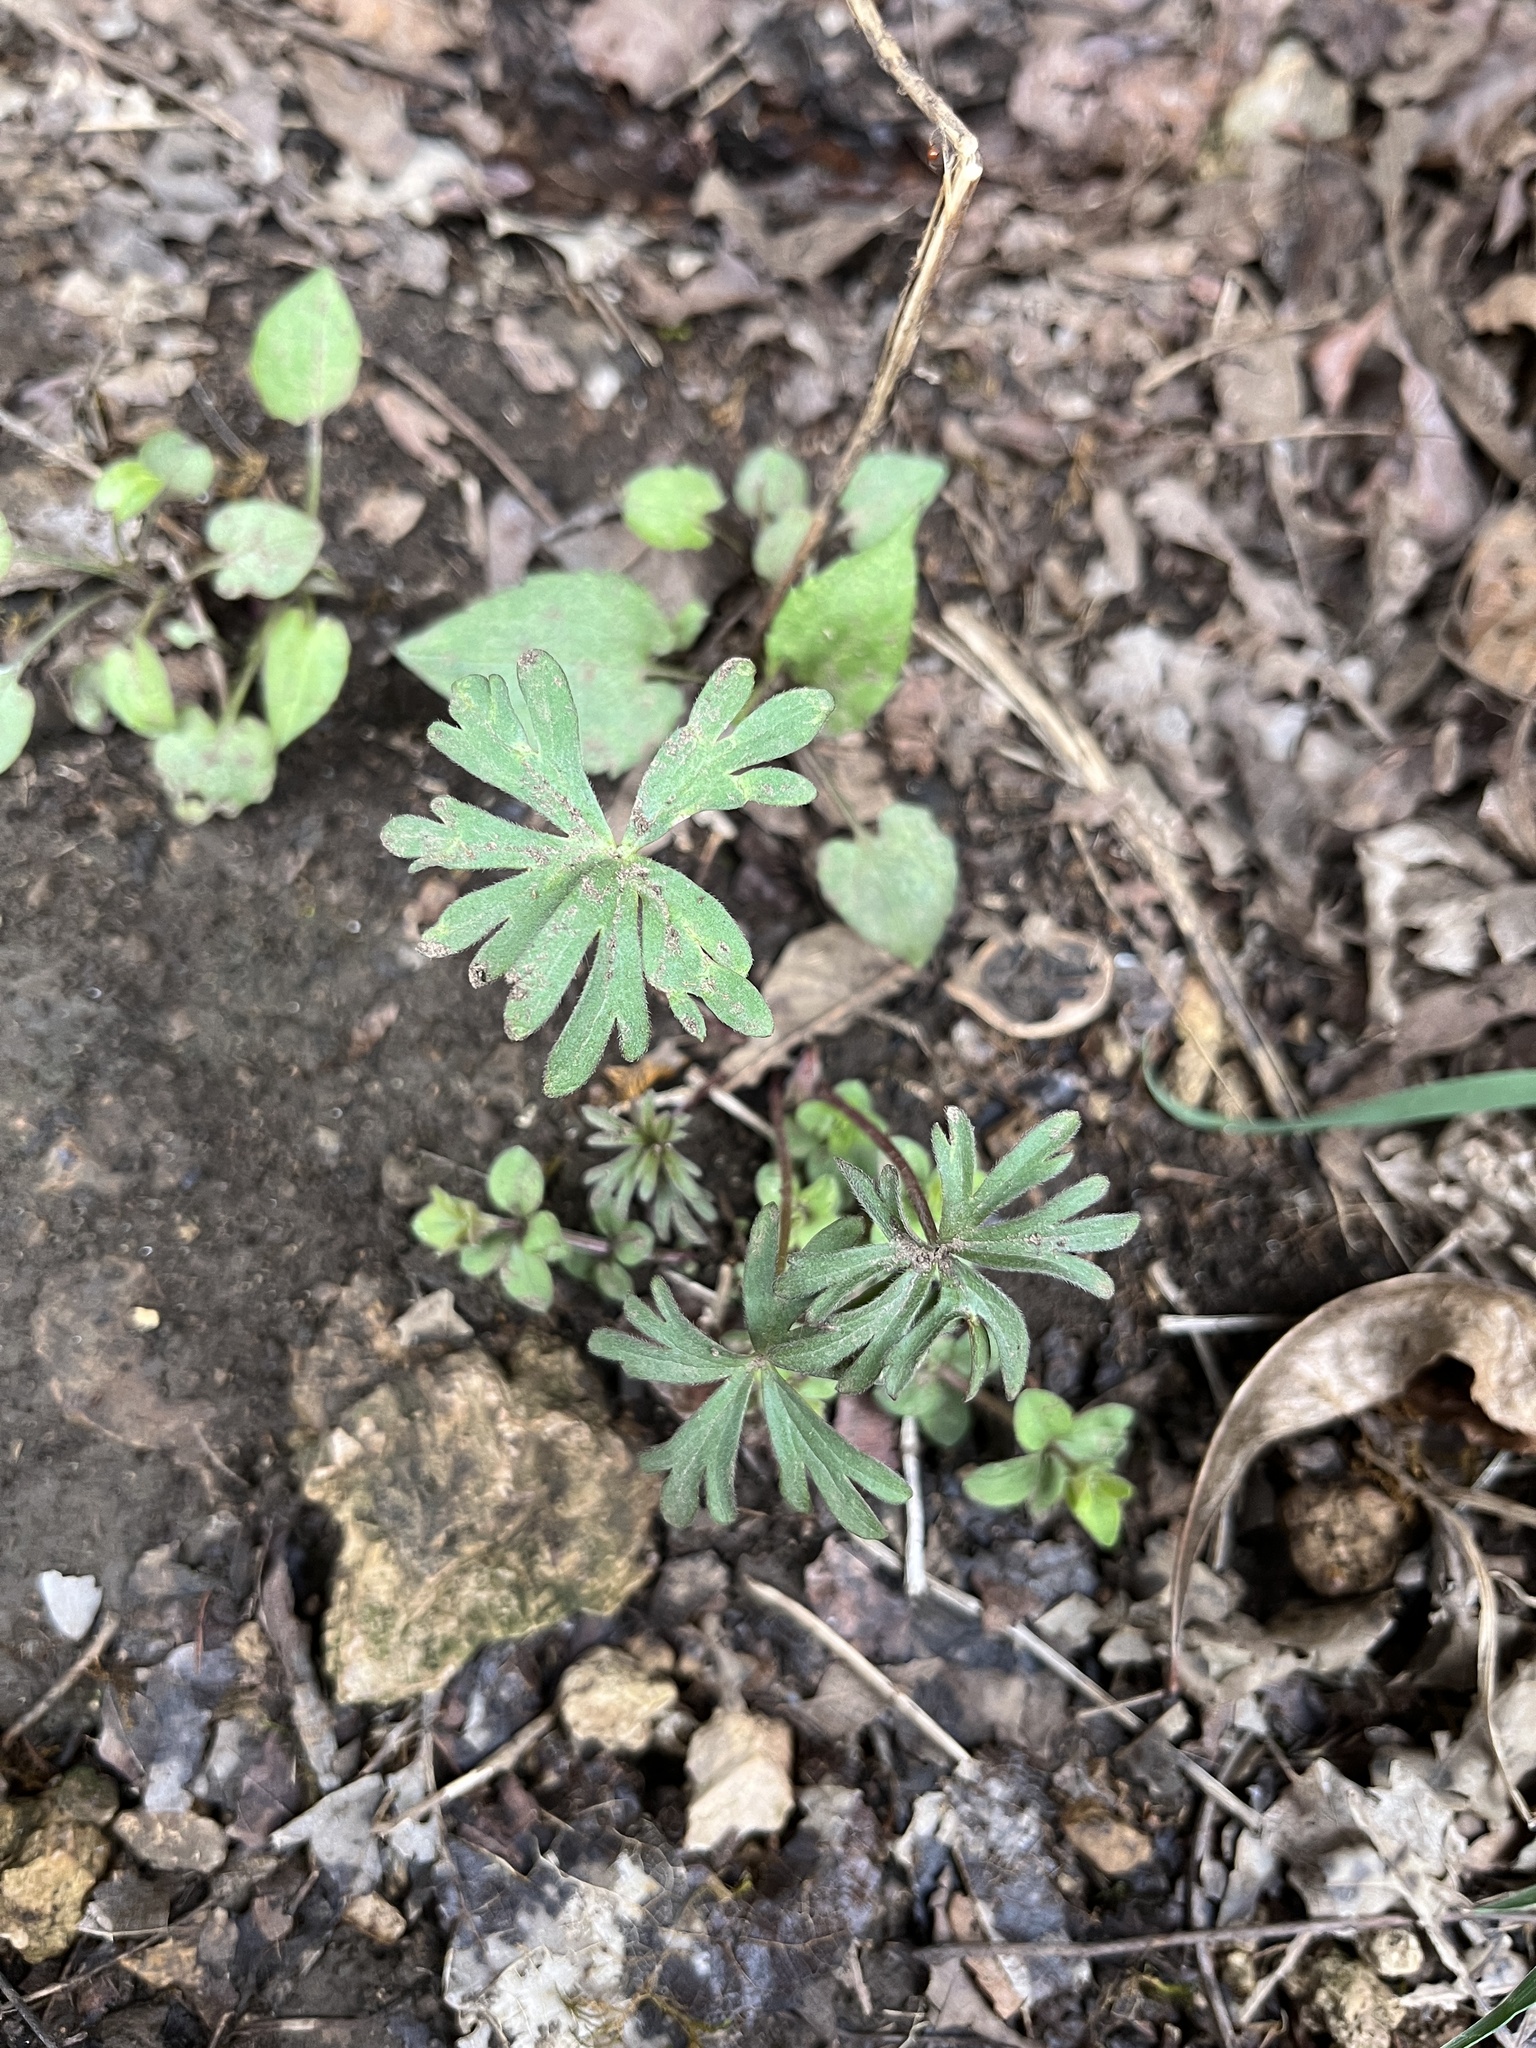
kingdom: Plantae
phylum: Tracheophyta
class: Magnoliopsida
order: Ranunculales
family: Ranunculaceae
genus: Delphinium
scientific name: Delphinium tricorne
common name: Dwarf larkspur
